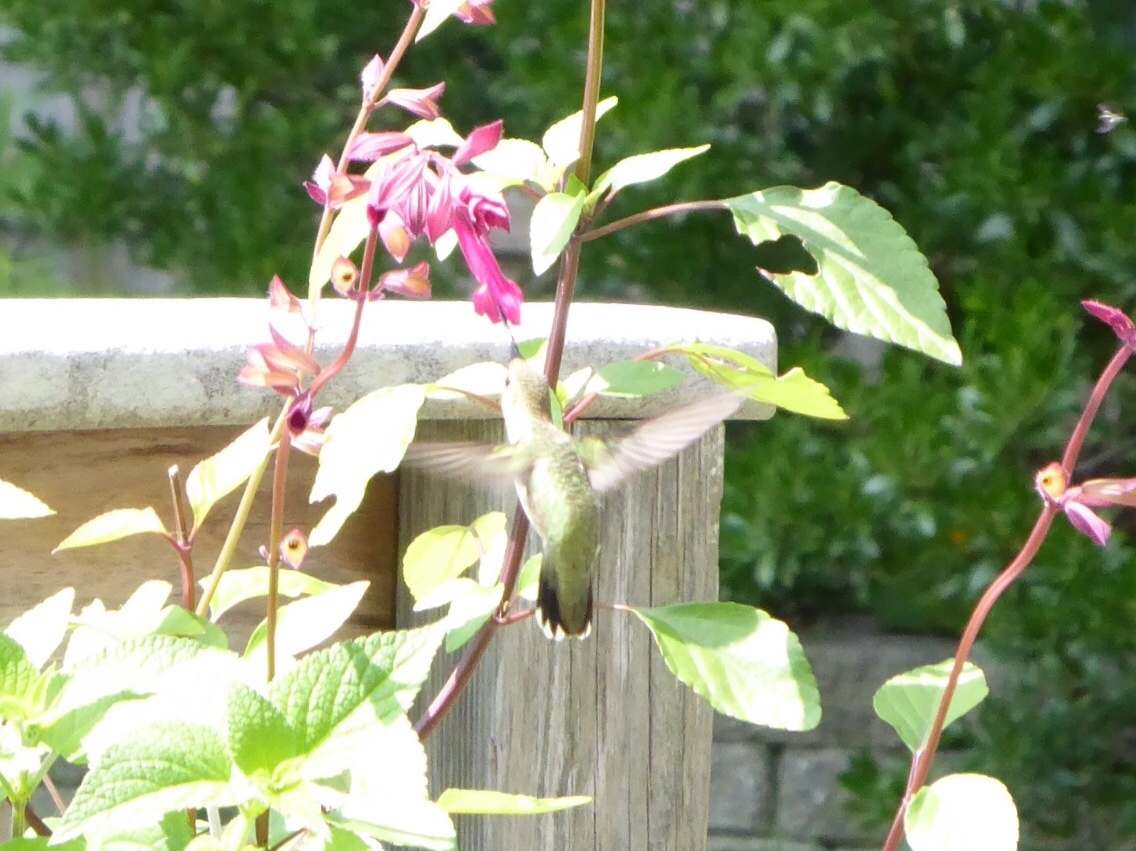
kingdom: Animalia
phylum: Chordata
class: Aves
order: Apodiformes
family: Trochilidae
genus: Archilochus
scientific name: Archilochus colubris
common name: Ruby-throated hummingbird
